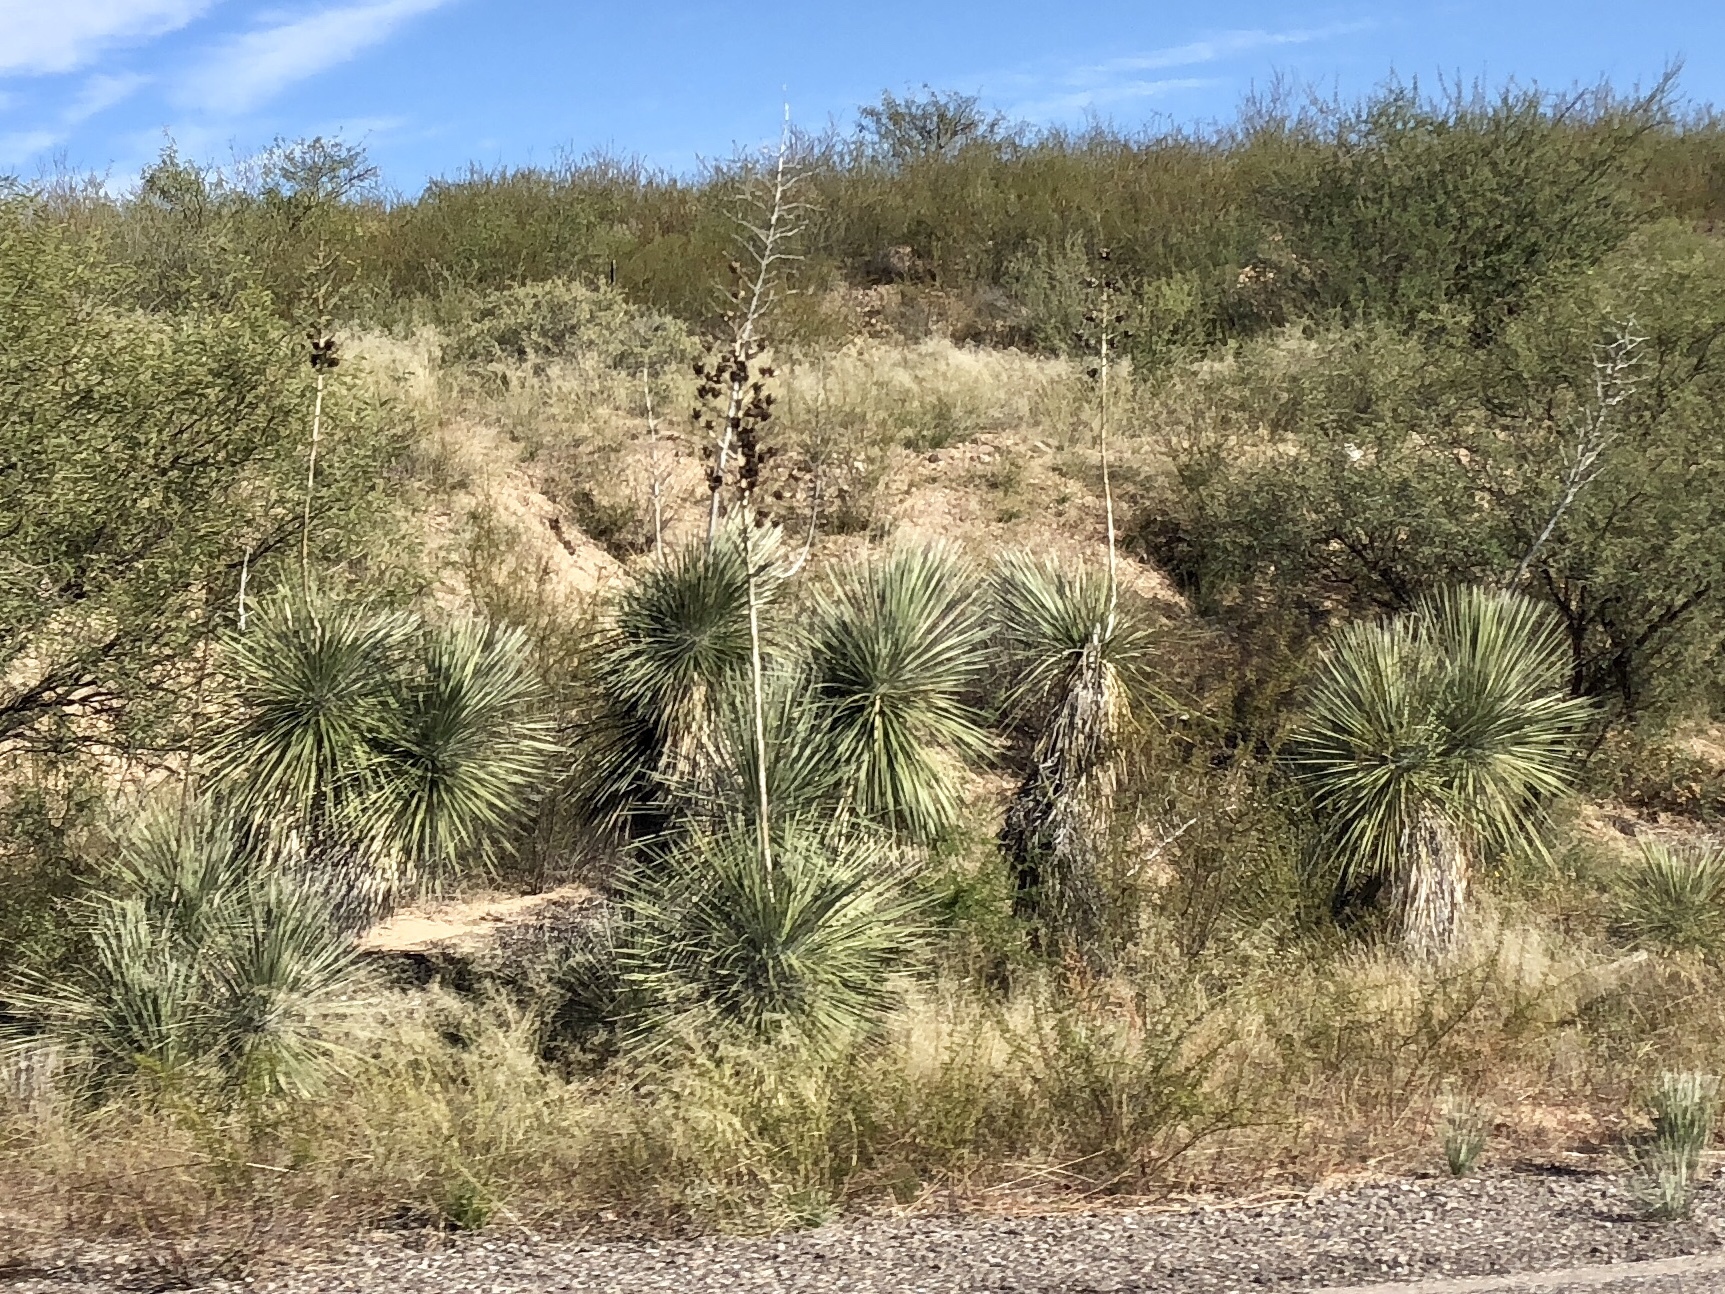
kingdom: Plantae
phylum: Tracheophyta
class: Liliopsida
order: Asparagales
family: Asparagaceae
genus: Yucca
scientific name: Yucca elata
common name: Palmella
